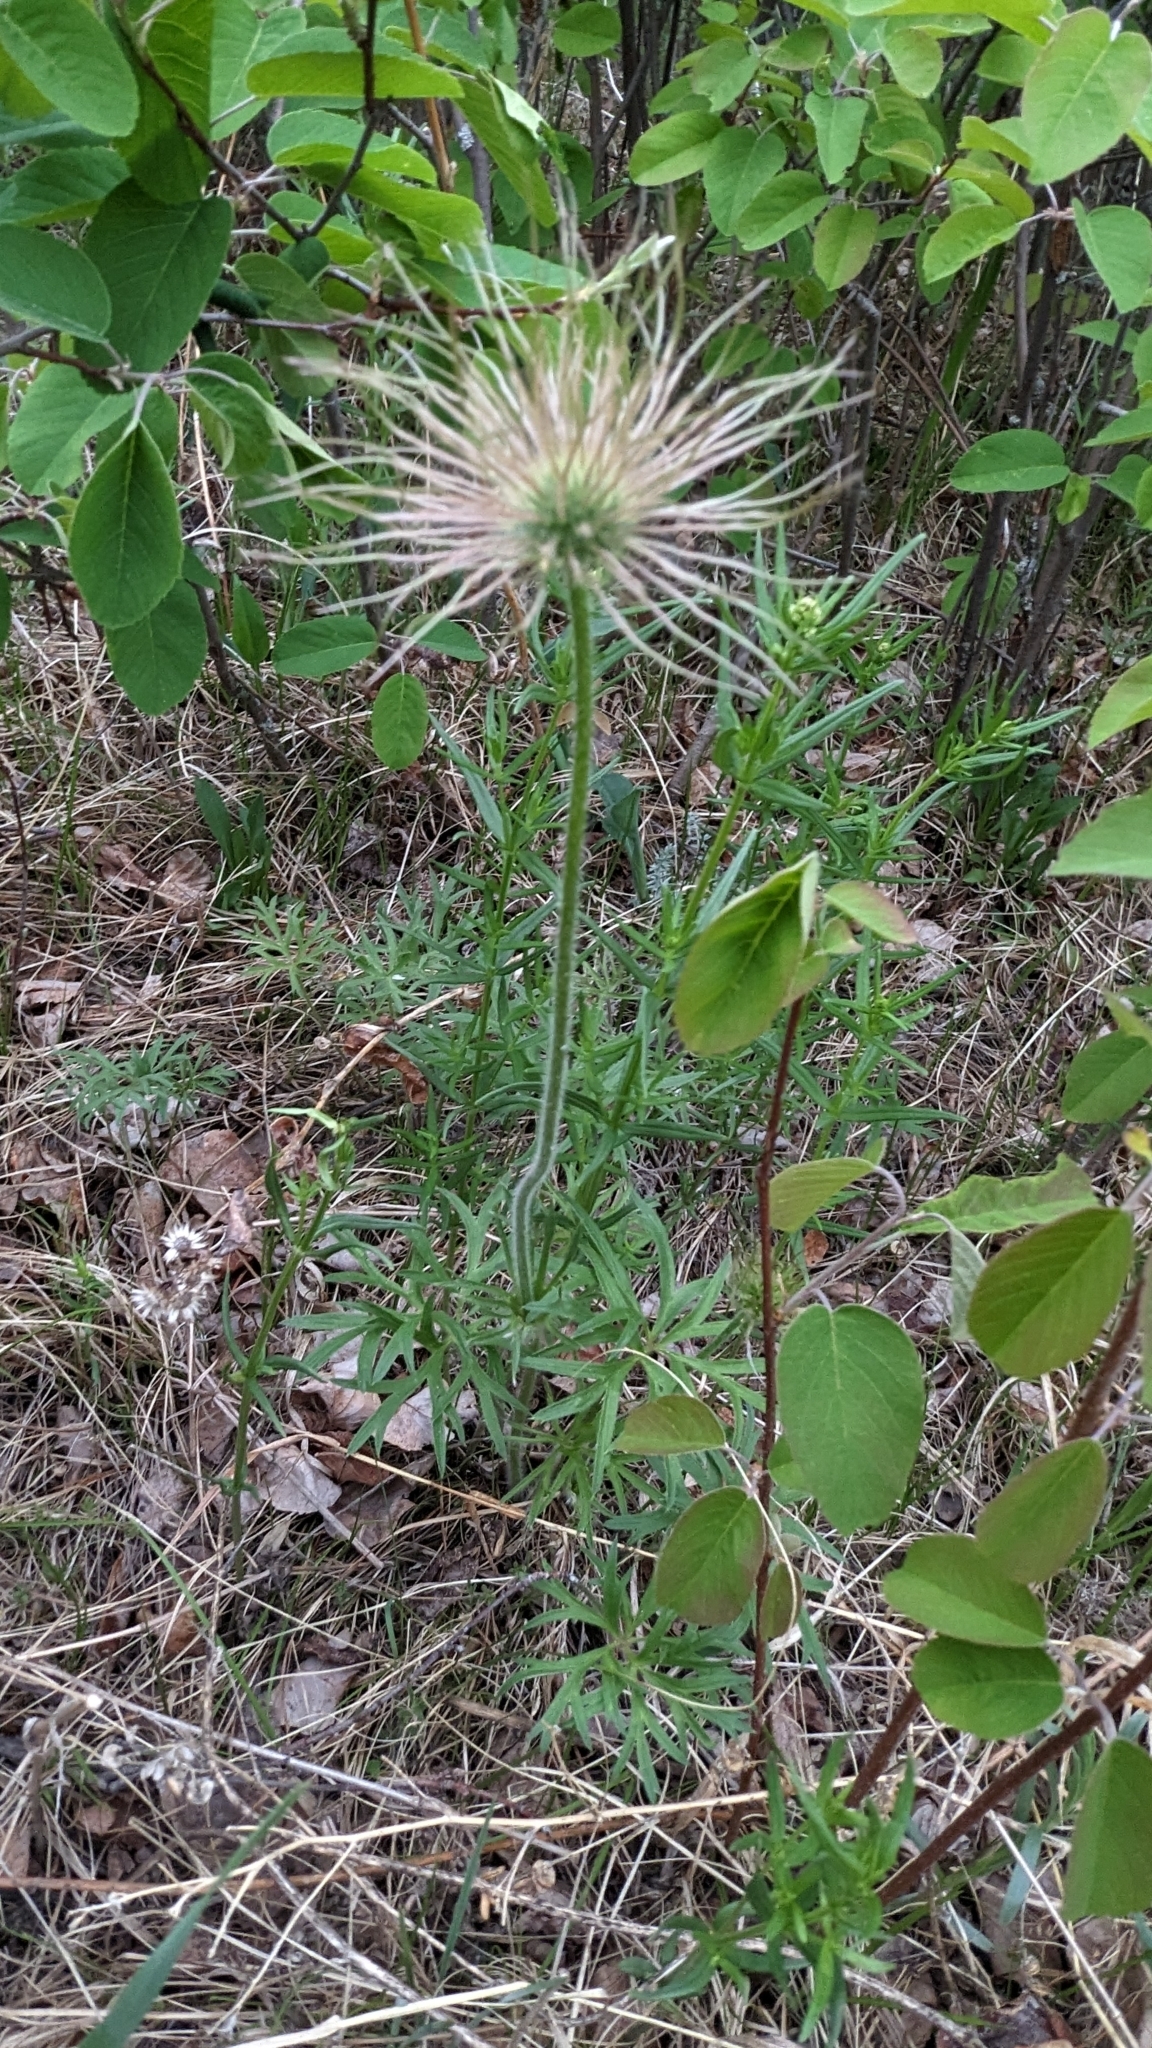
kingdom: Plantae
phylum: Tracheophyta
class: Magnoliopsida
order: Ranunculales
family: Ranunculaceae
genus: Pulsatilla
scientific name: Pulsatilla nuttalliana
